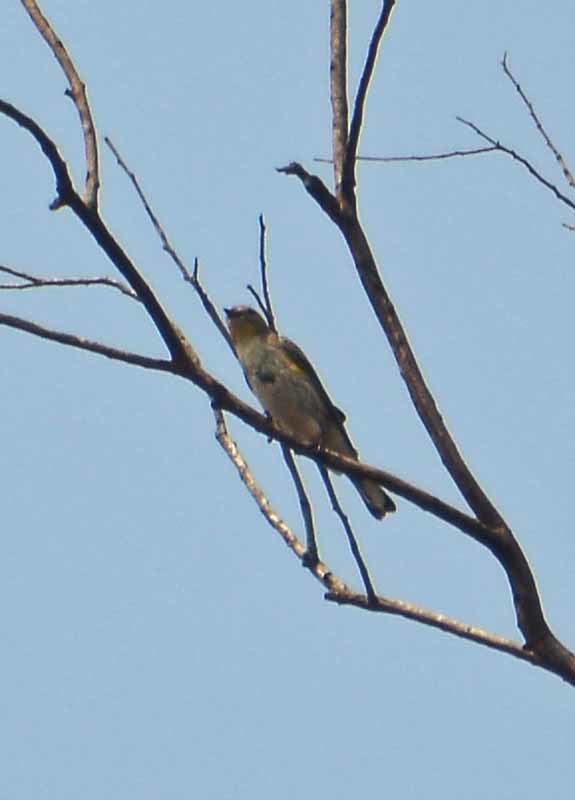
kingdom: Animalia
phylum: Chordata
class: Aves
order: Passeriformes
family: Parulidae
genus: Setophaga
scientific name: Setophaga coronata
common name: Myrtle warbler
